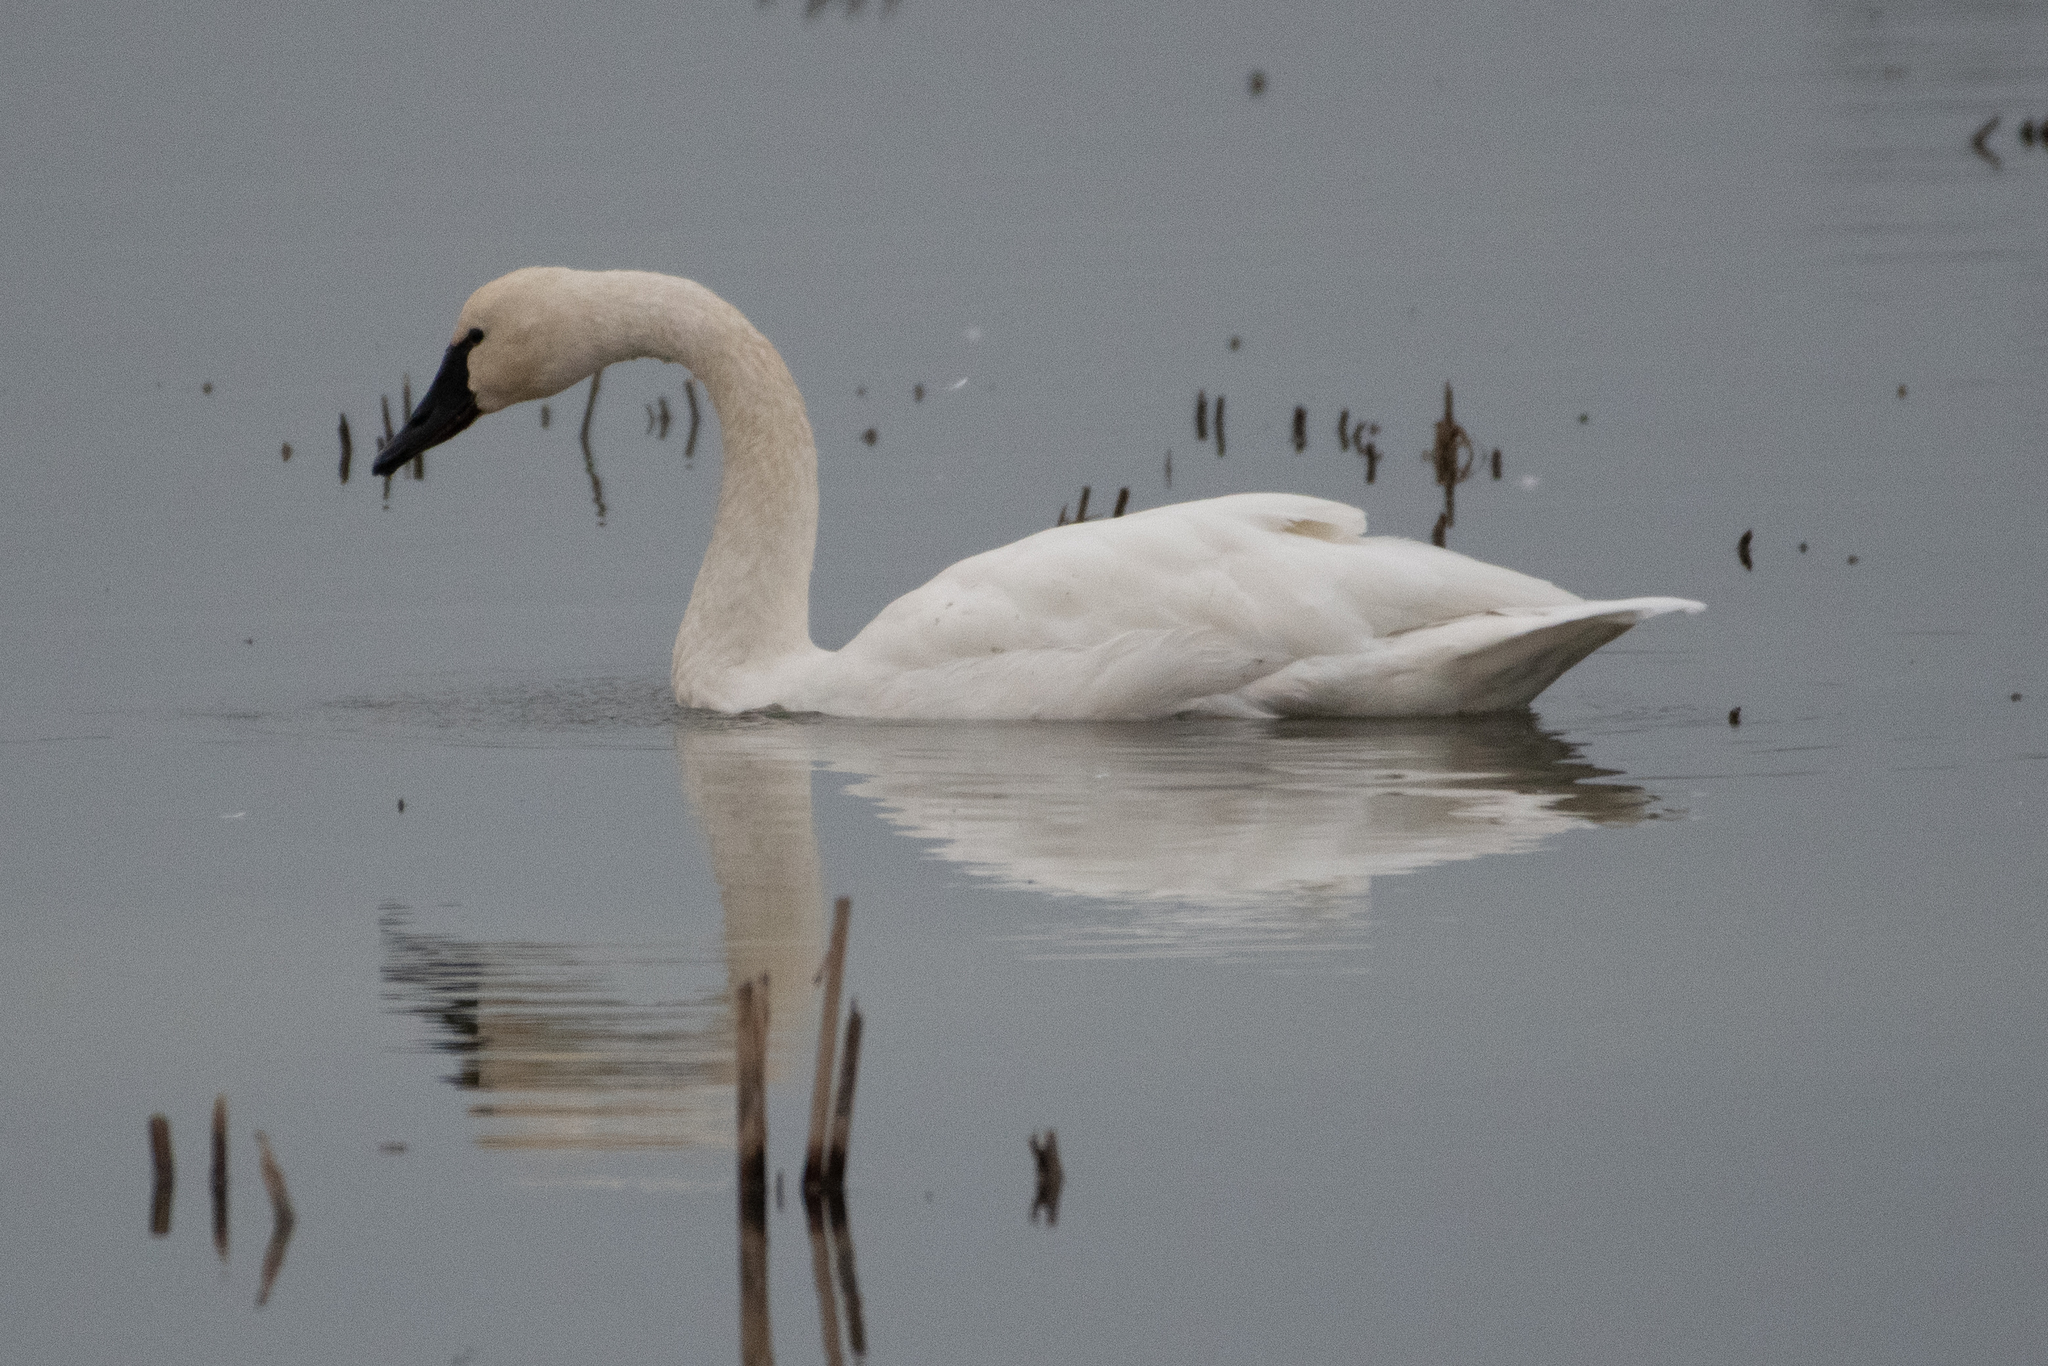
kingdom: Animalia
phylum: Chordata
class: Aves
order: Anseriformes
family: Anatidae
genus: Cygnus
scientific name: Cygnus columbianus
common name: Tundra swan
